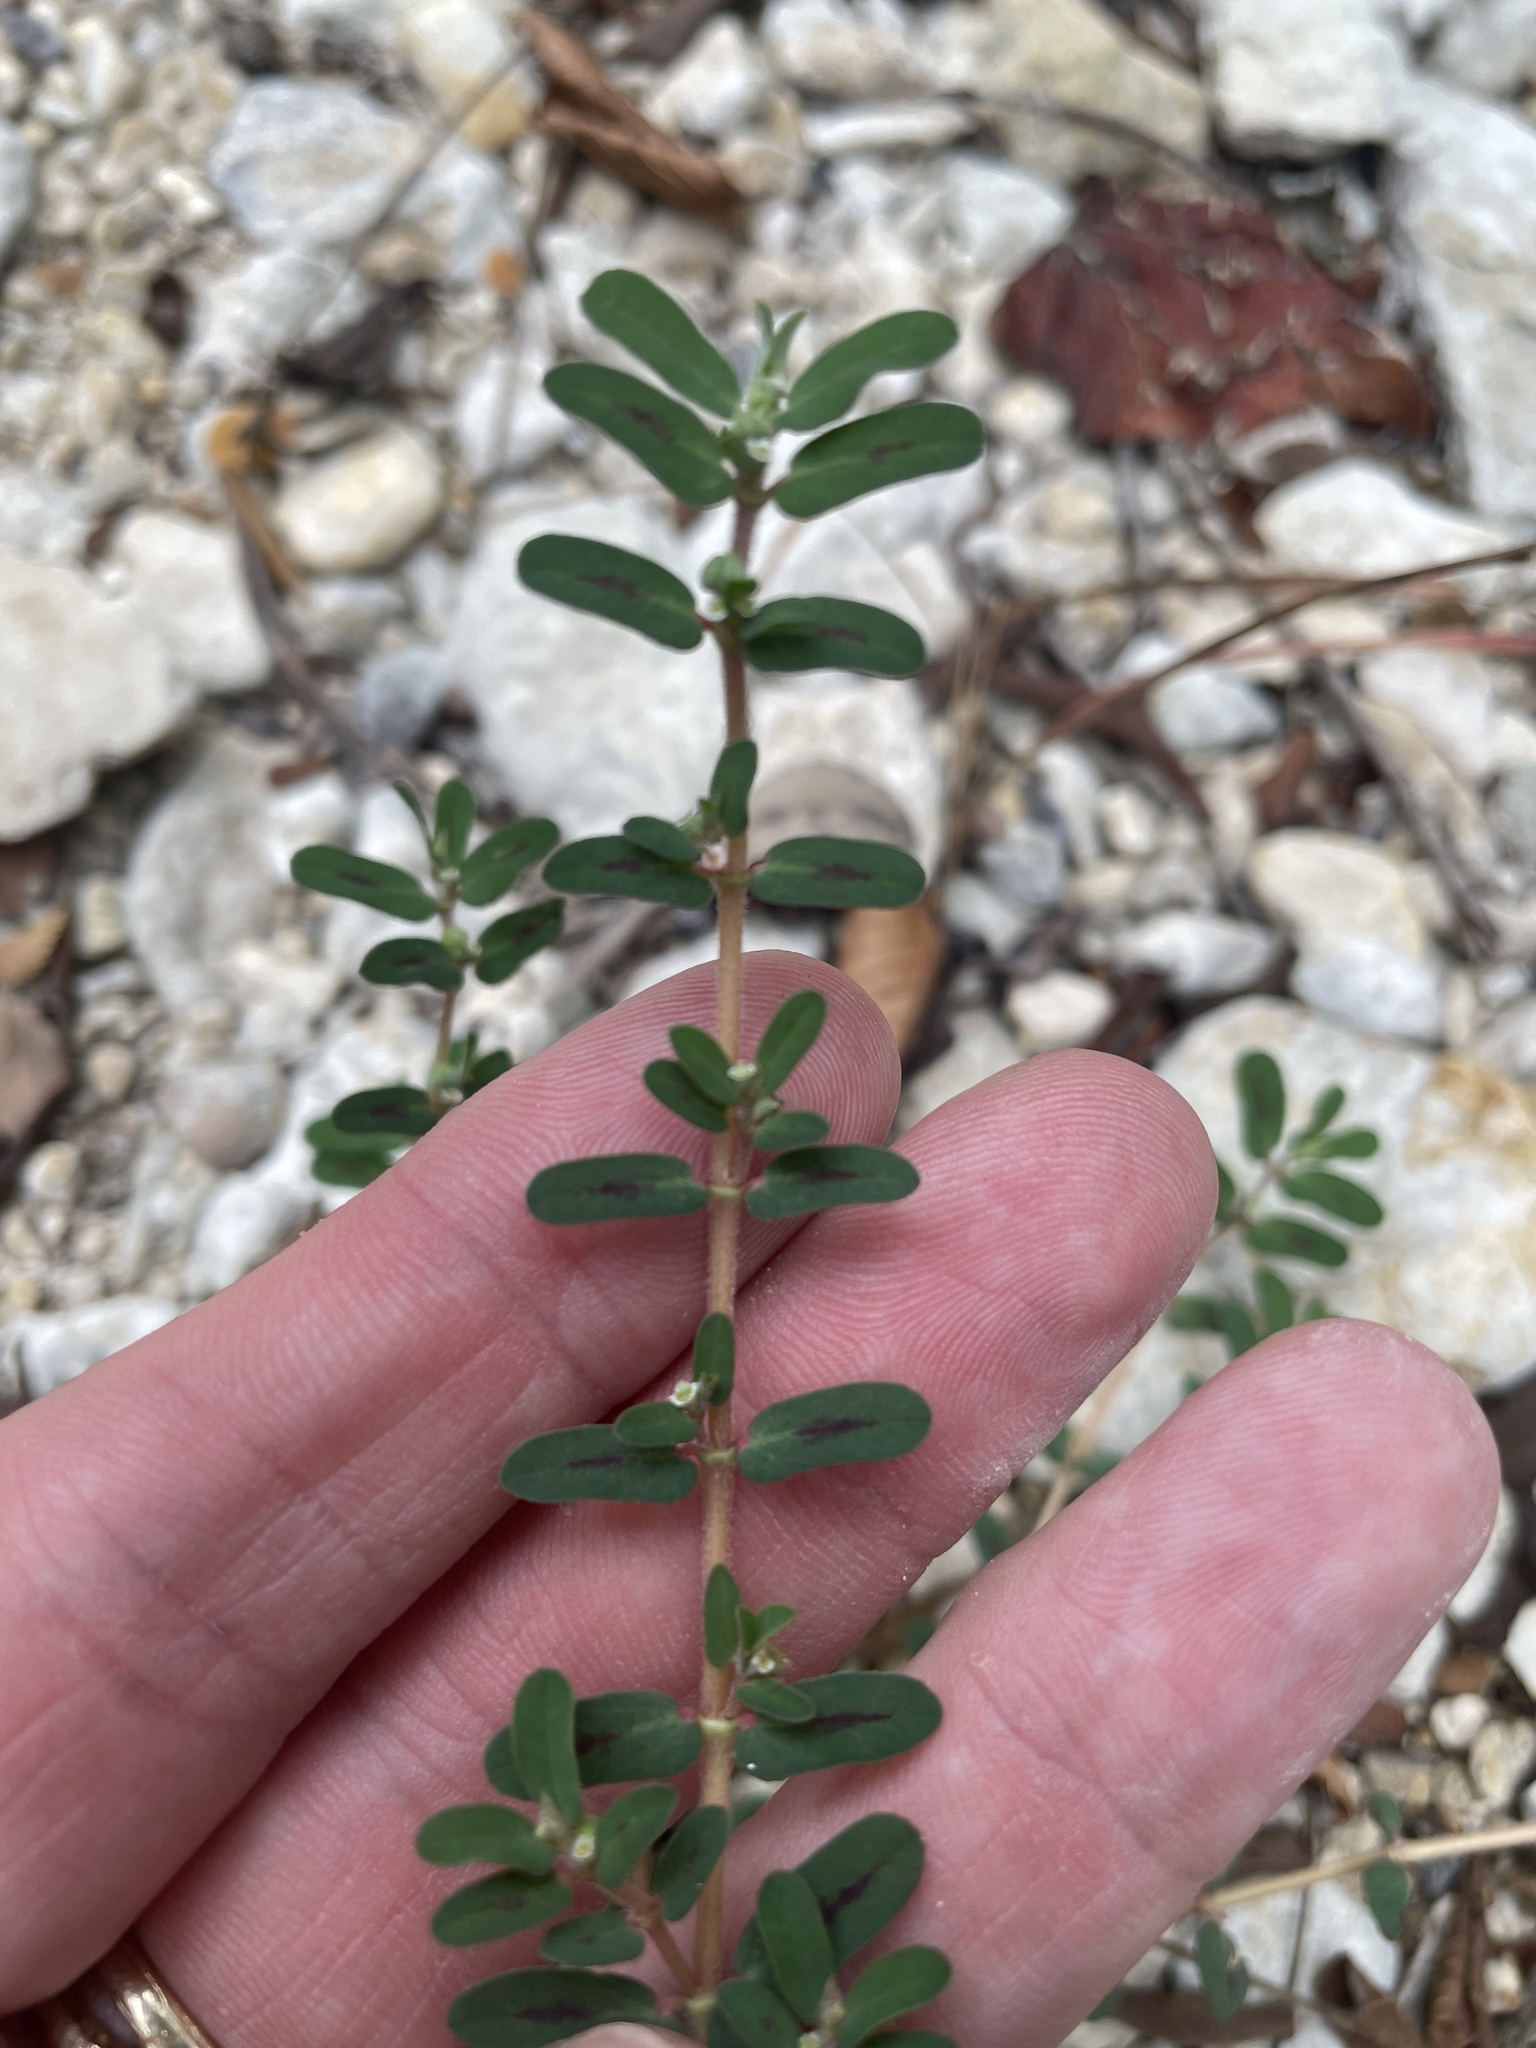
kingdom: Plantae
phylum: Tracheophyta
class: Magnoliopsida
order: Malpighiales
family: Euphorbiaceae
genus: Euphorbia
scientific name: Euphorbia maculata
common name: Spotted spurge
